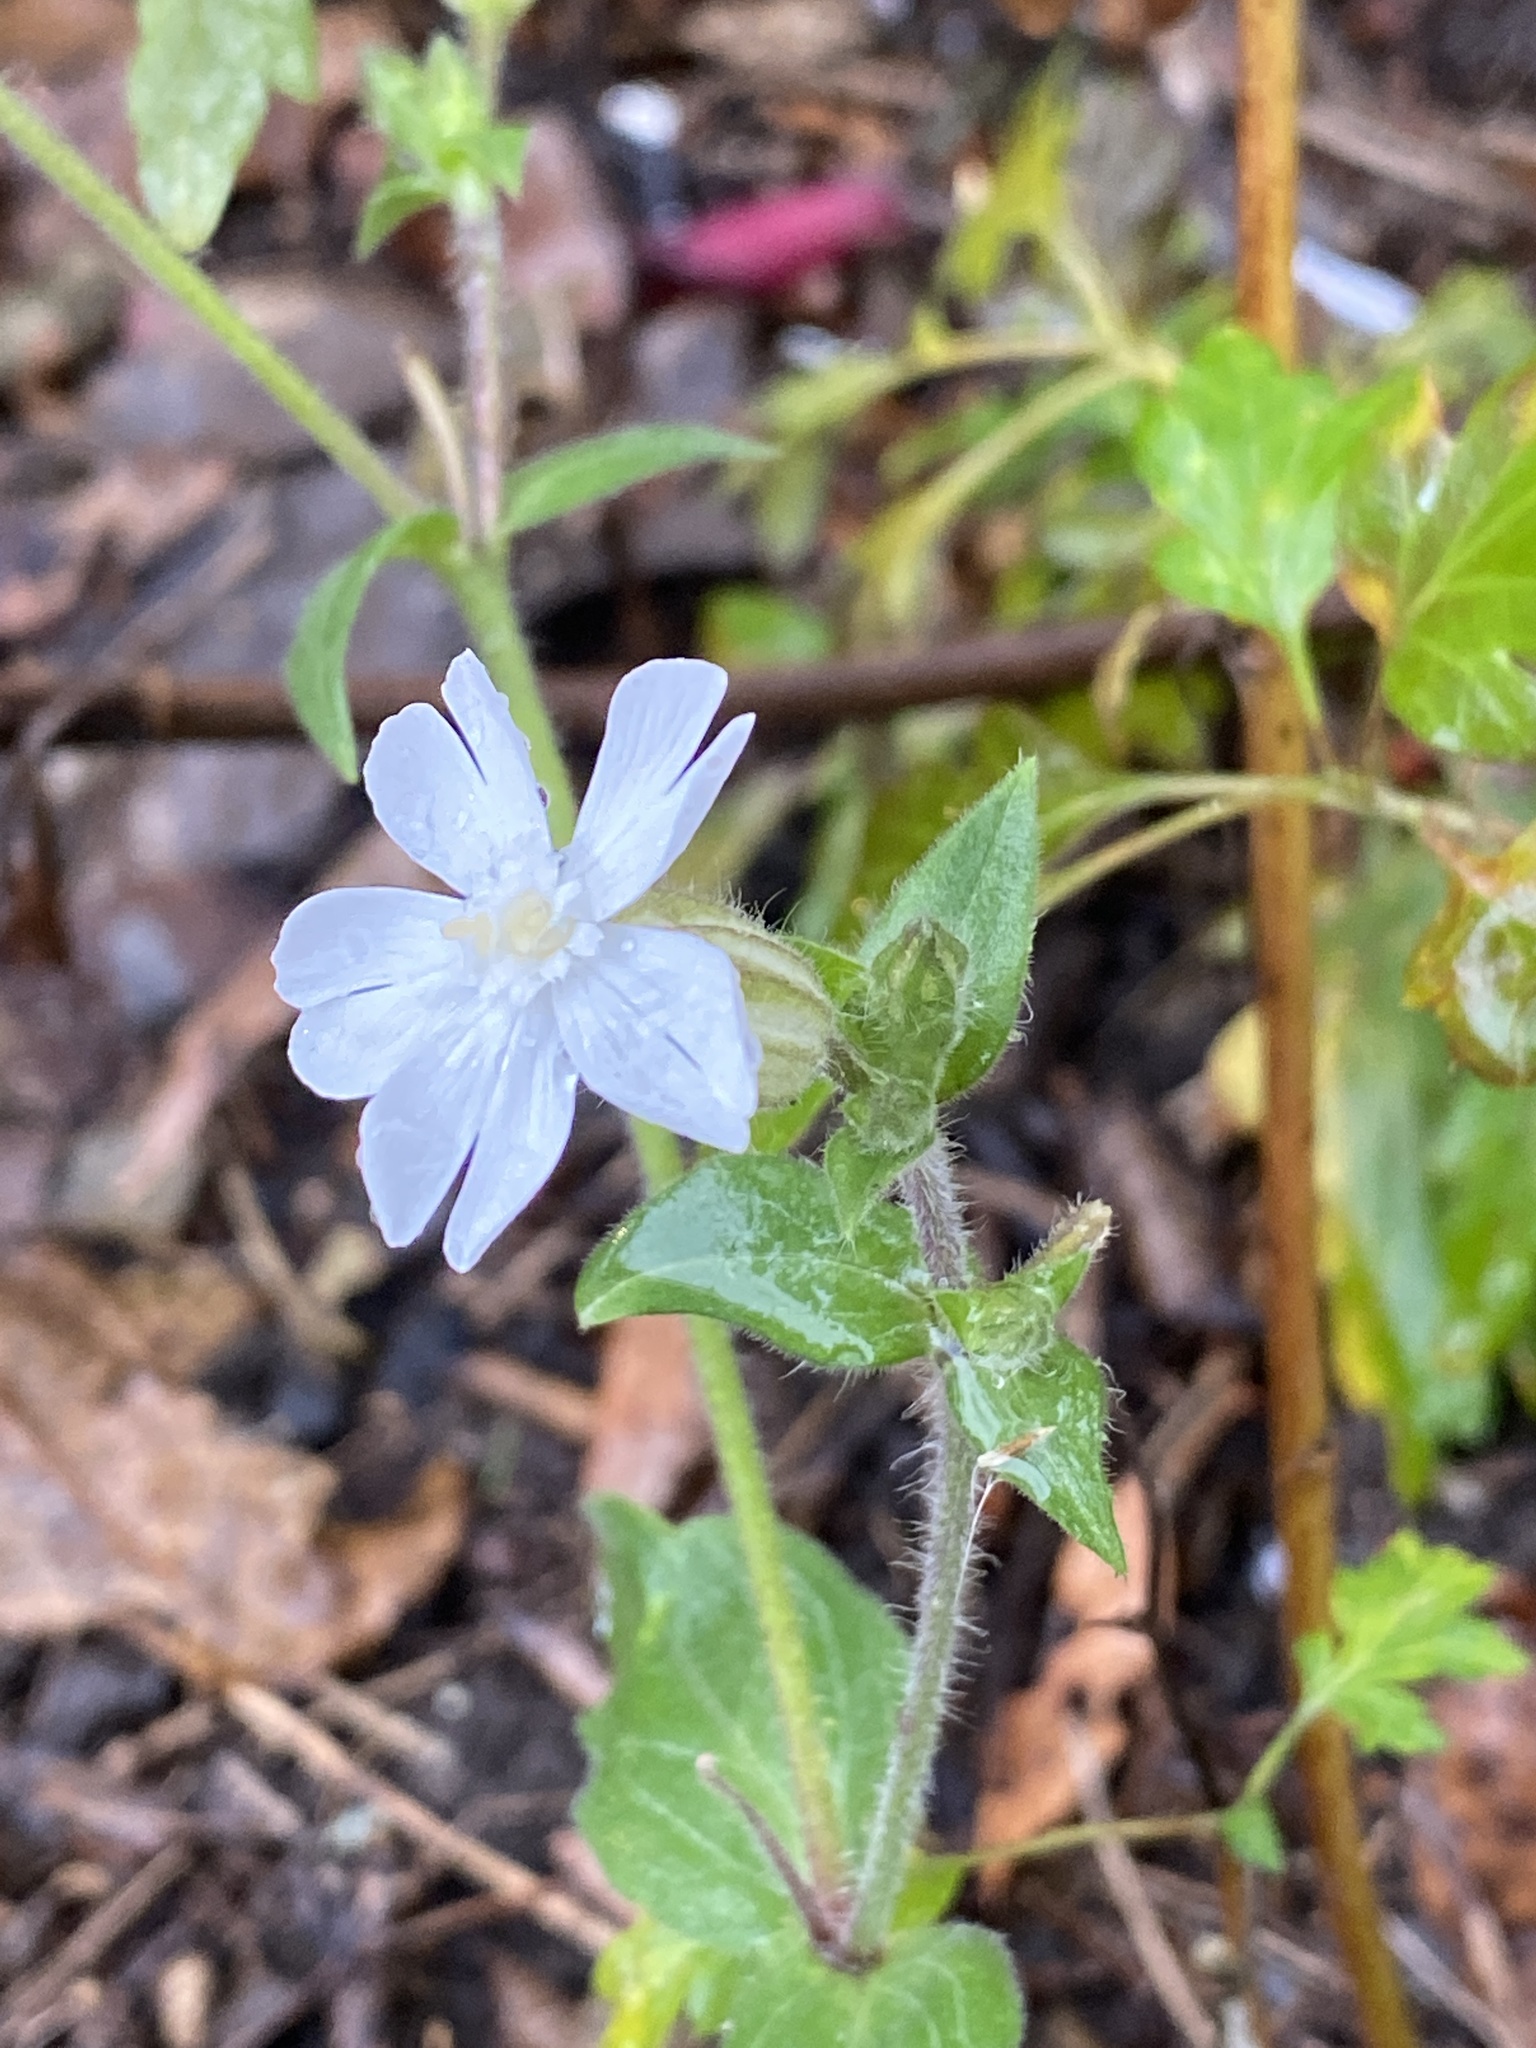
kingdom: Plantae
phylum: Tracheophyta
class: Magnoliopsida
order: Caryophyllales
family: Caryophyllaceae
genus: Silene
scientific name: Silene latifolia
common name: White campion
